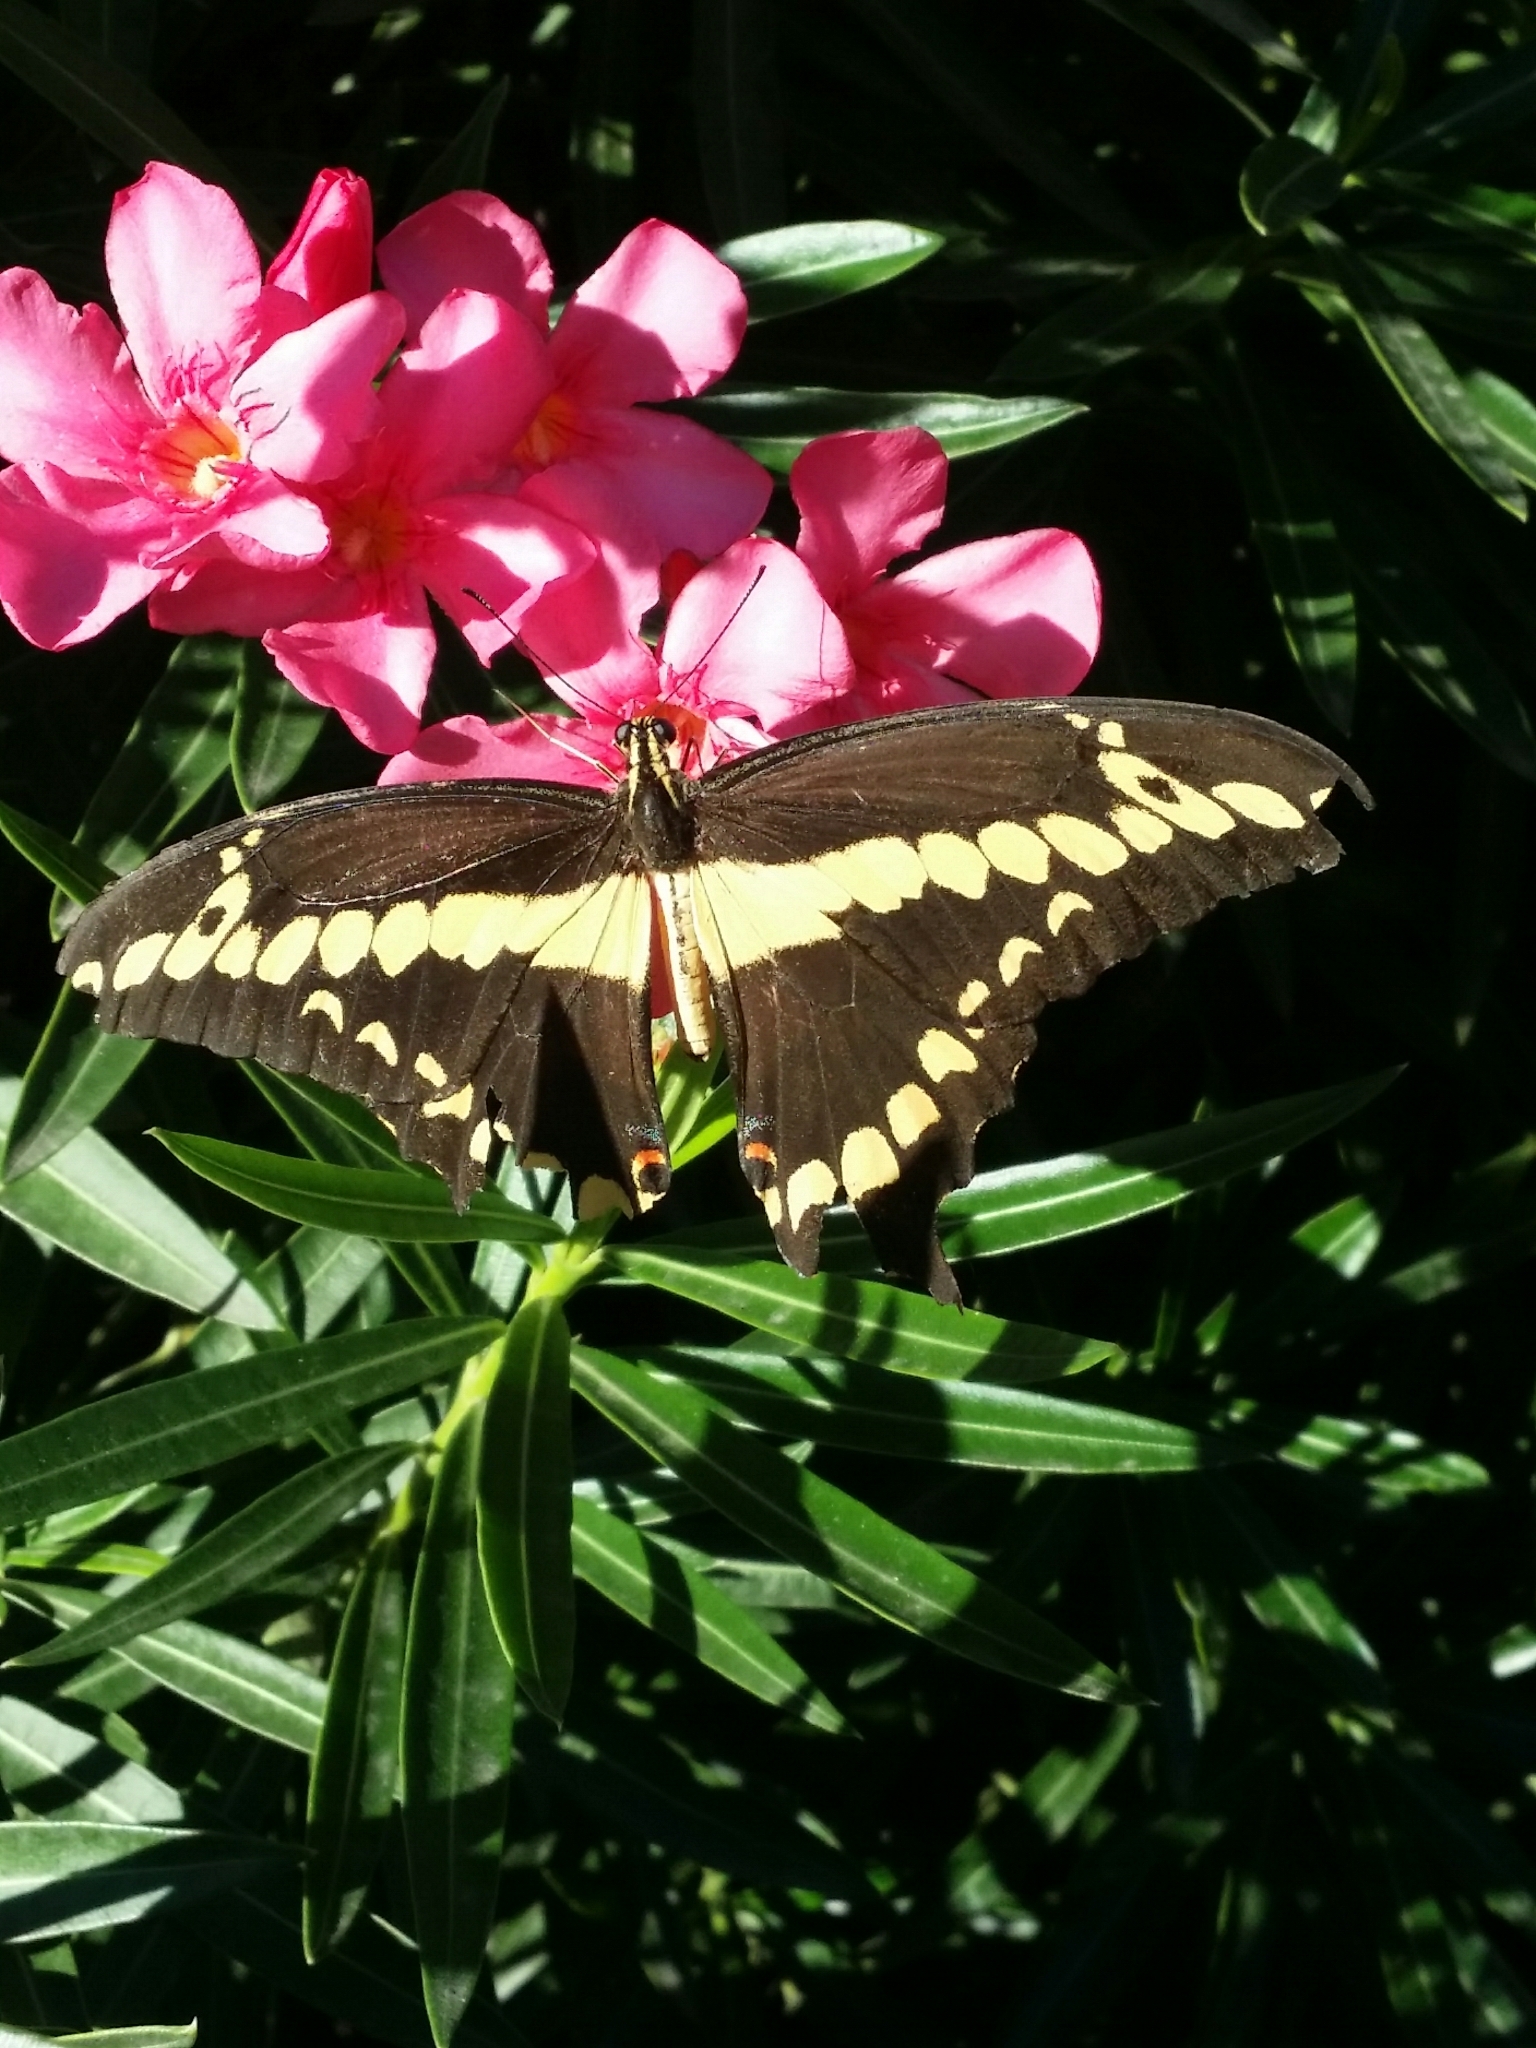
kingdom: Animalia
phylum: Arthropoda
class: Insecta
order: Lepidoptera
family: Papilionidae
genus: Papilio
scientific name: Papilio rumiko
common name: Western giant swallowtail
